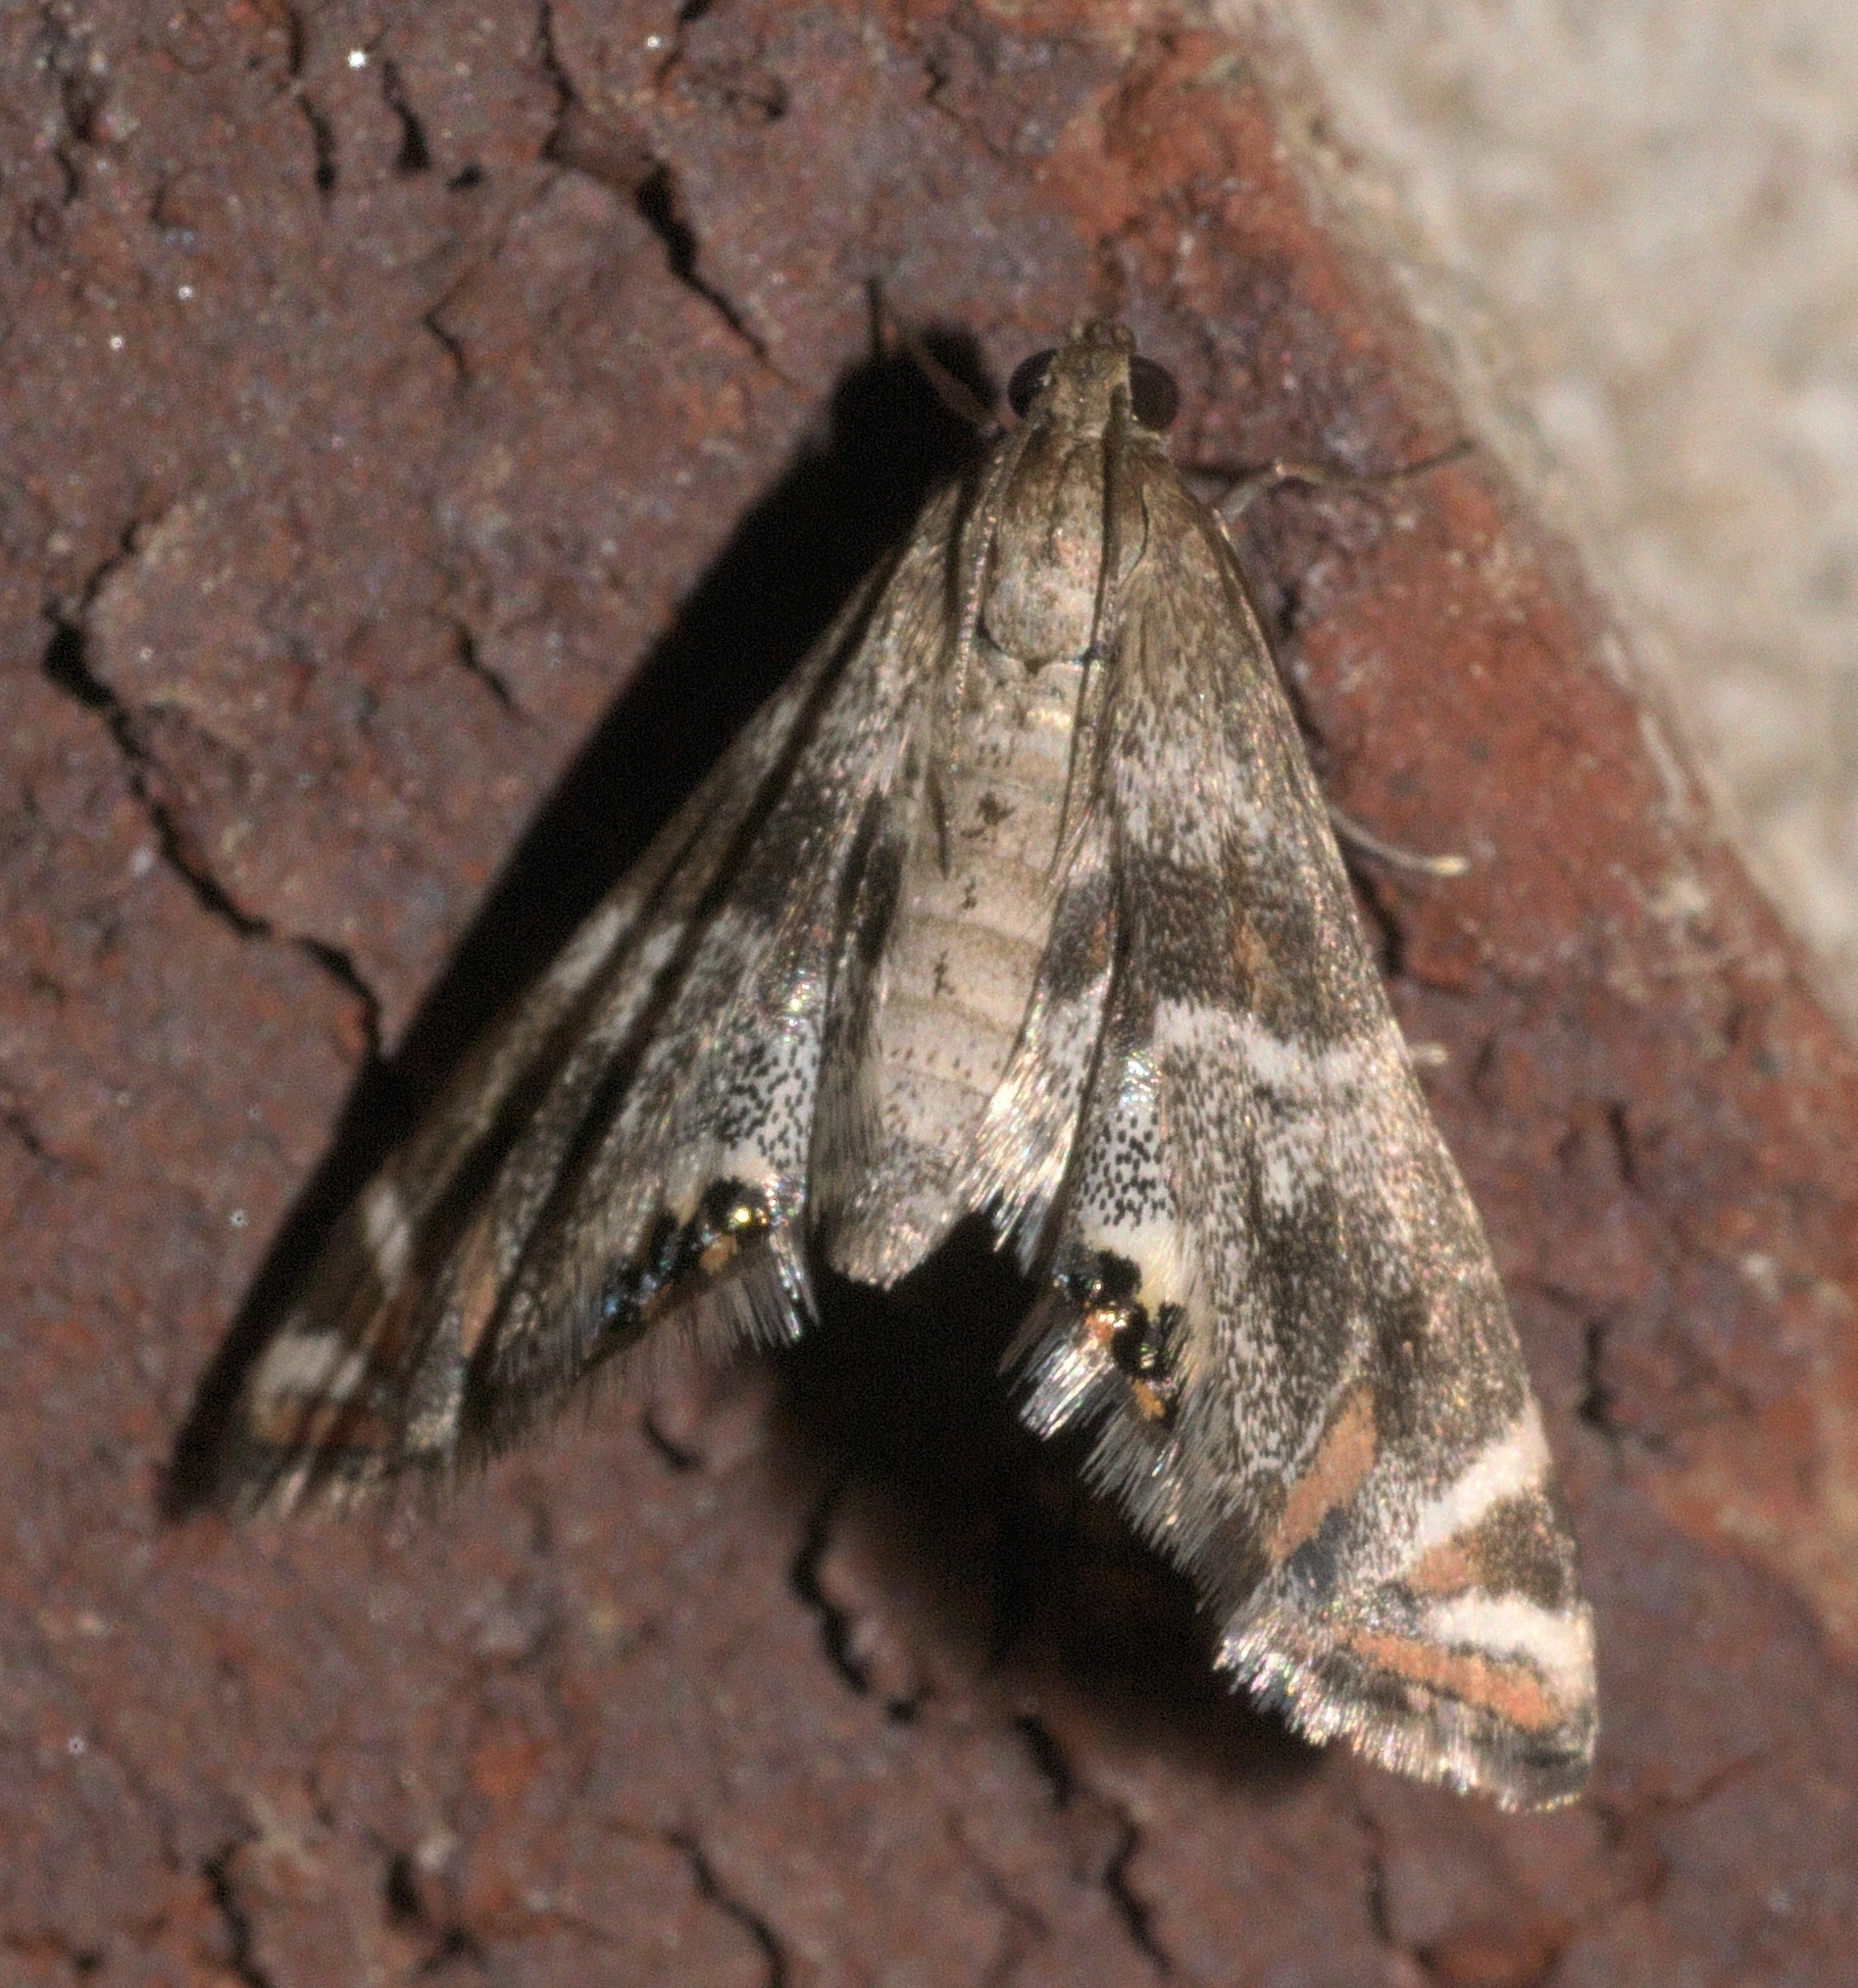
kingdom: Animalia
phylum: Arthropoda
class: Insecta
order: Lepidoptera
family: Crambidae
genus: Petrophila
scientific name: Petrophila jaliscalis
